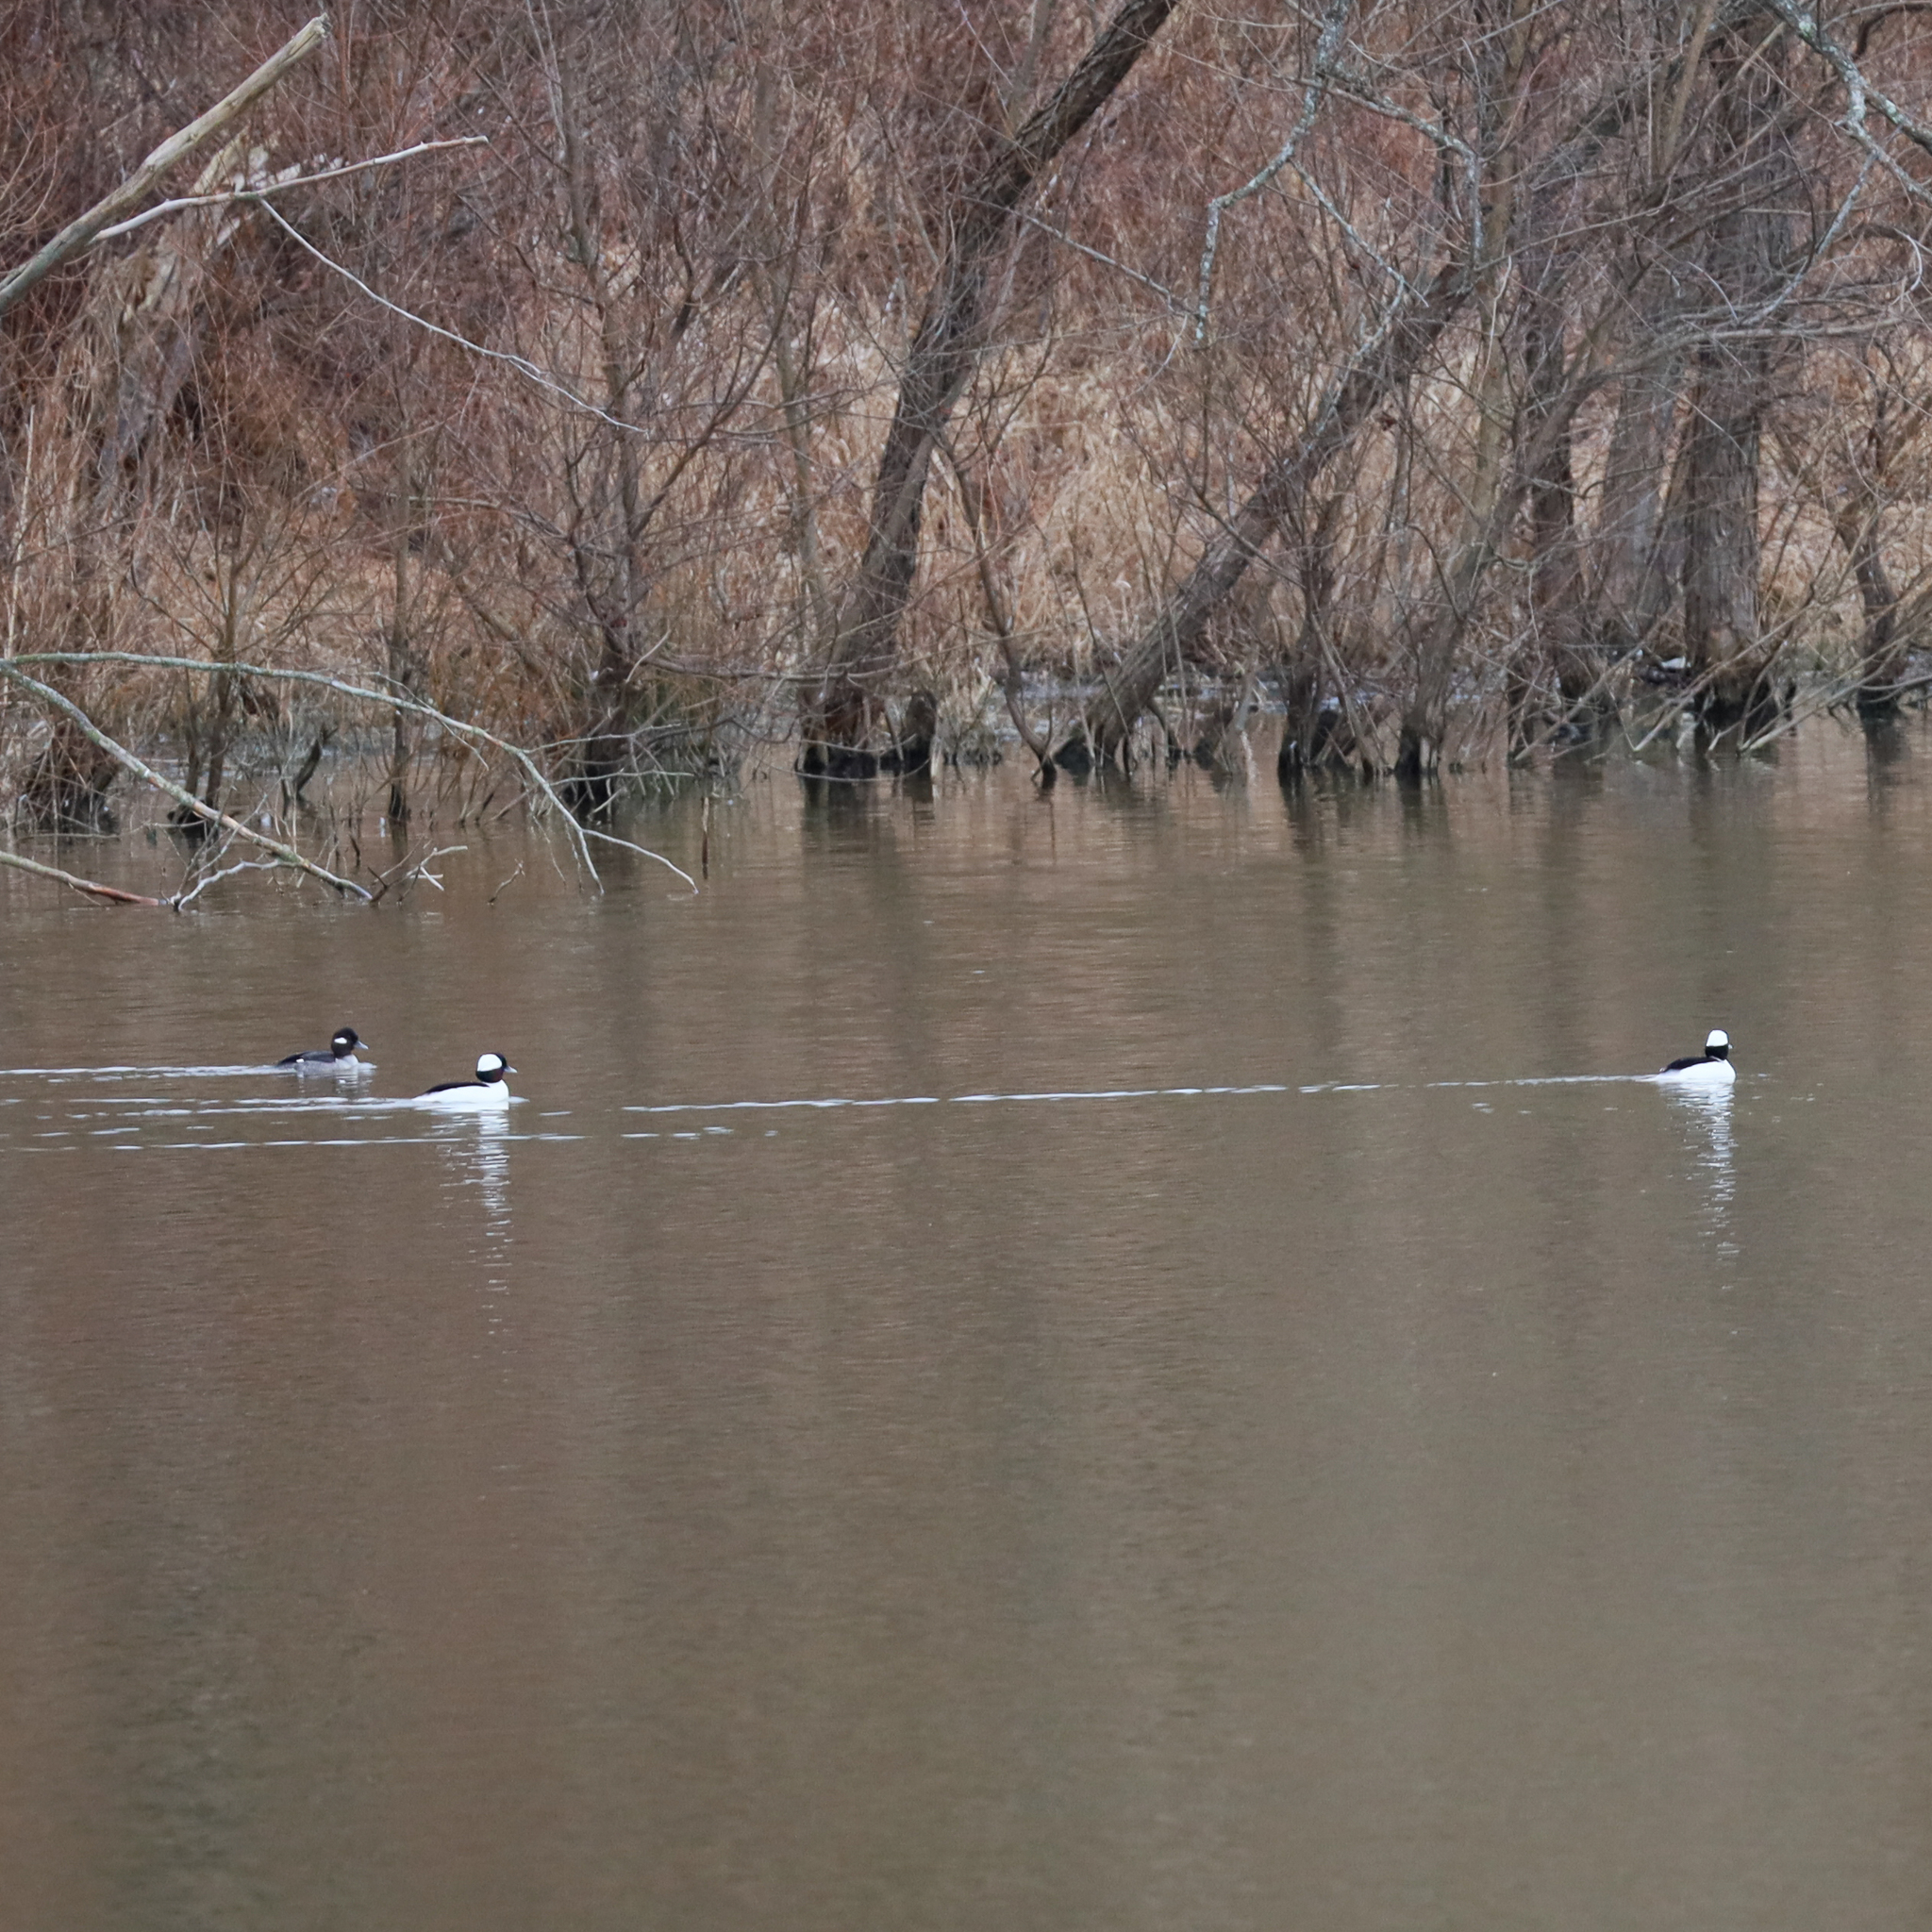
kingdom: Animalia
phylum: Chordata
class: Aves
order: Anseriformes
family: Anatidae
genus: Bucephala
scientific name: Bucephala albeola
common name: Bufflehead
